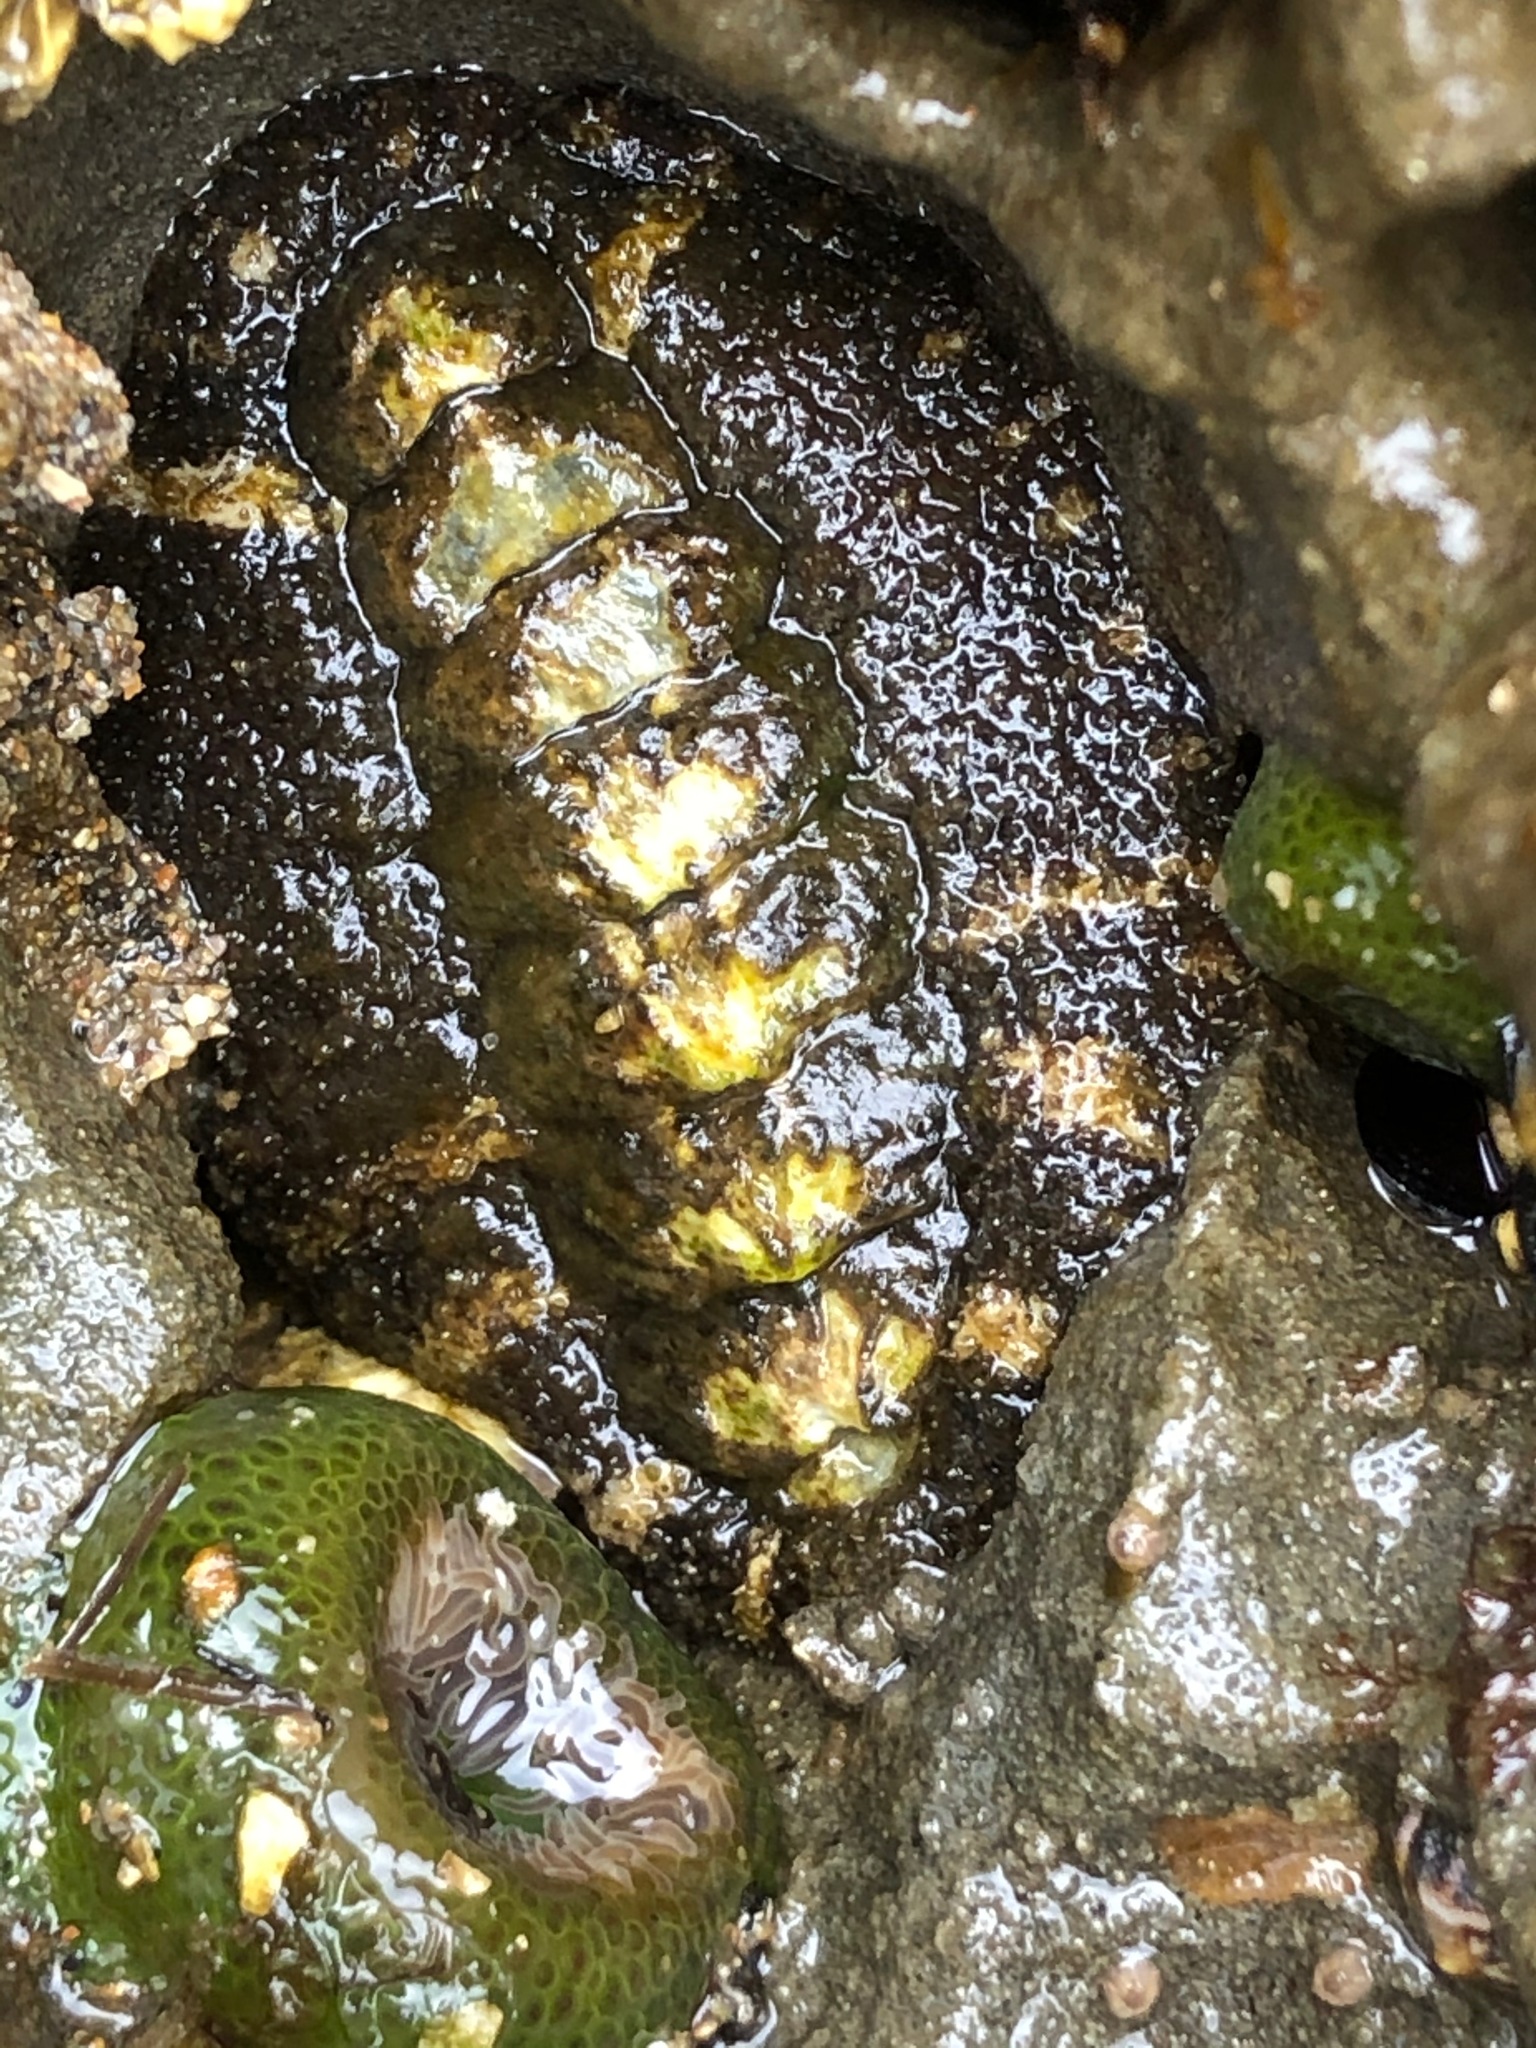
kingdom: Animalia
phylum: Mollusca
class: Polyplacophora
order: Chitonida
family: Tonicellidae
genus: Nuttallina
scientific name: Nuttallina californica
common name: California nuttall chiton
